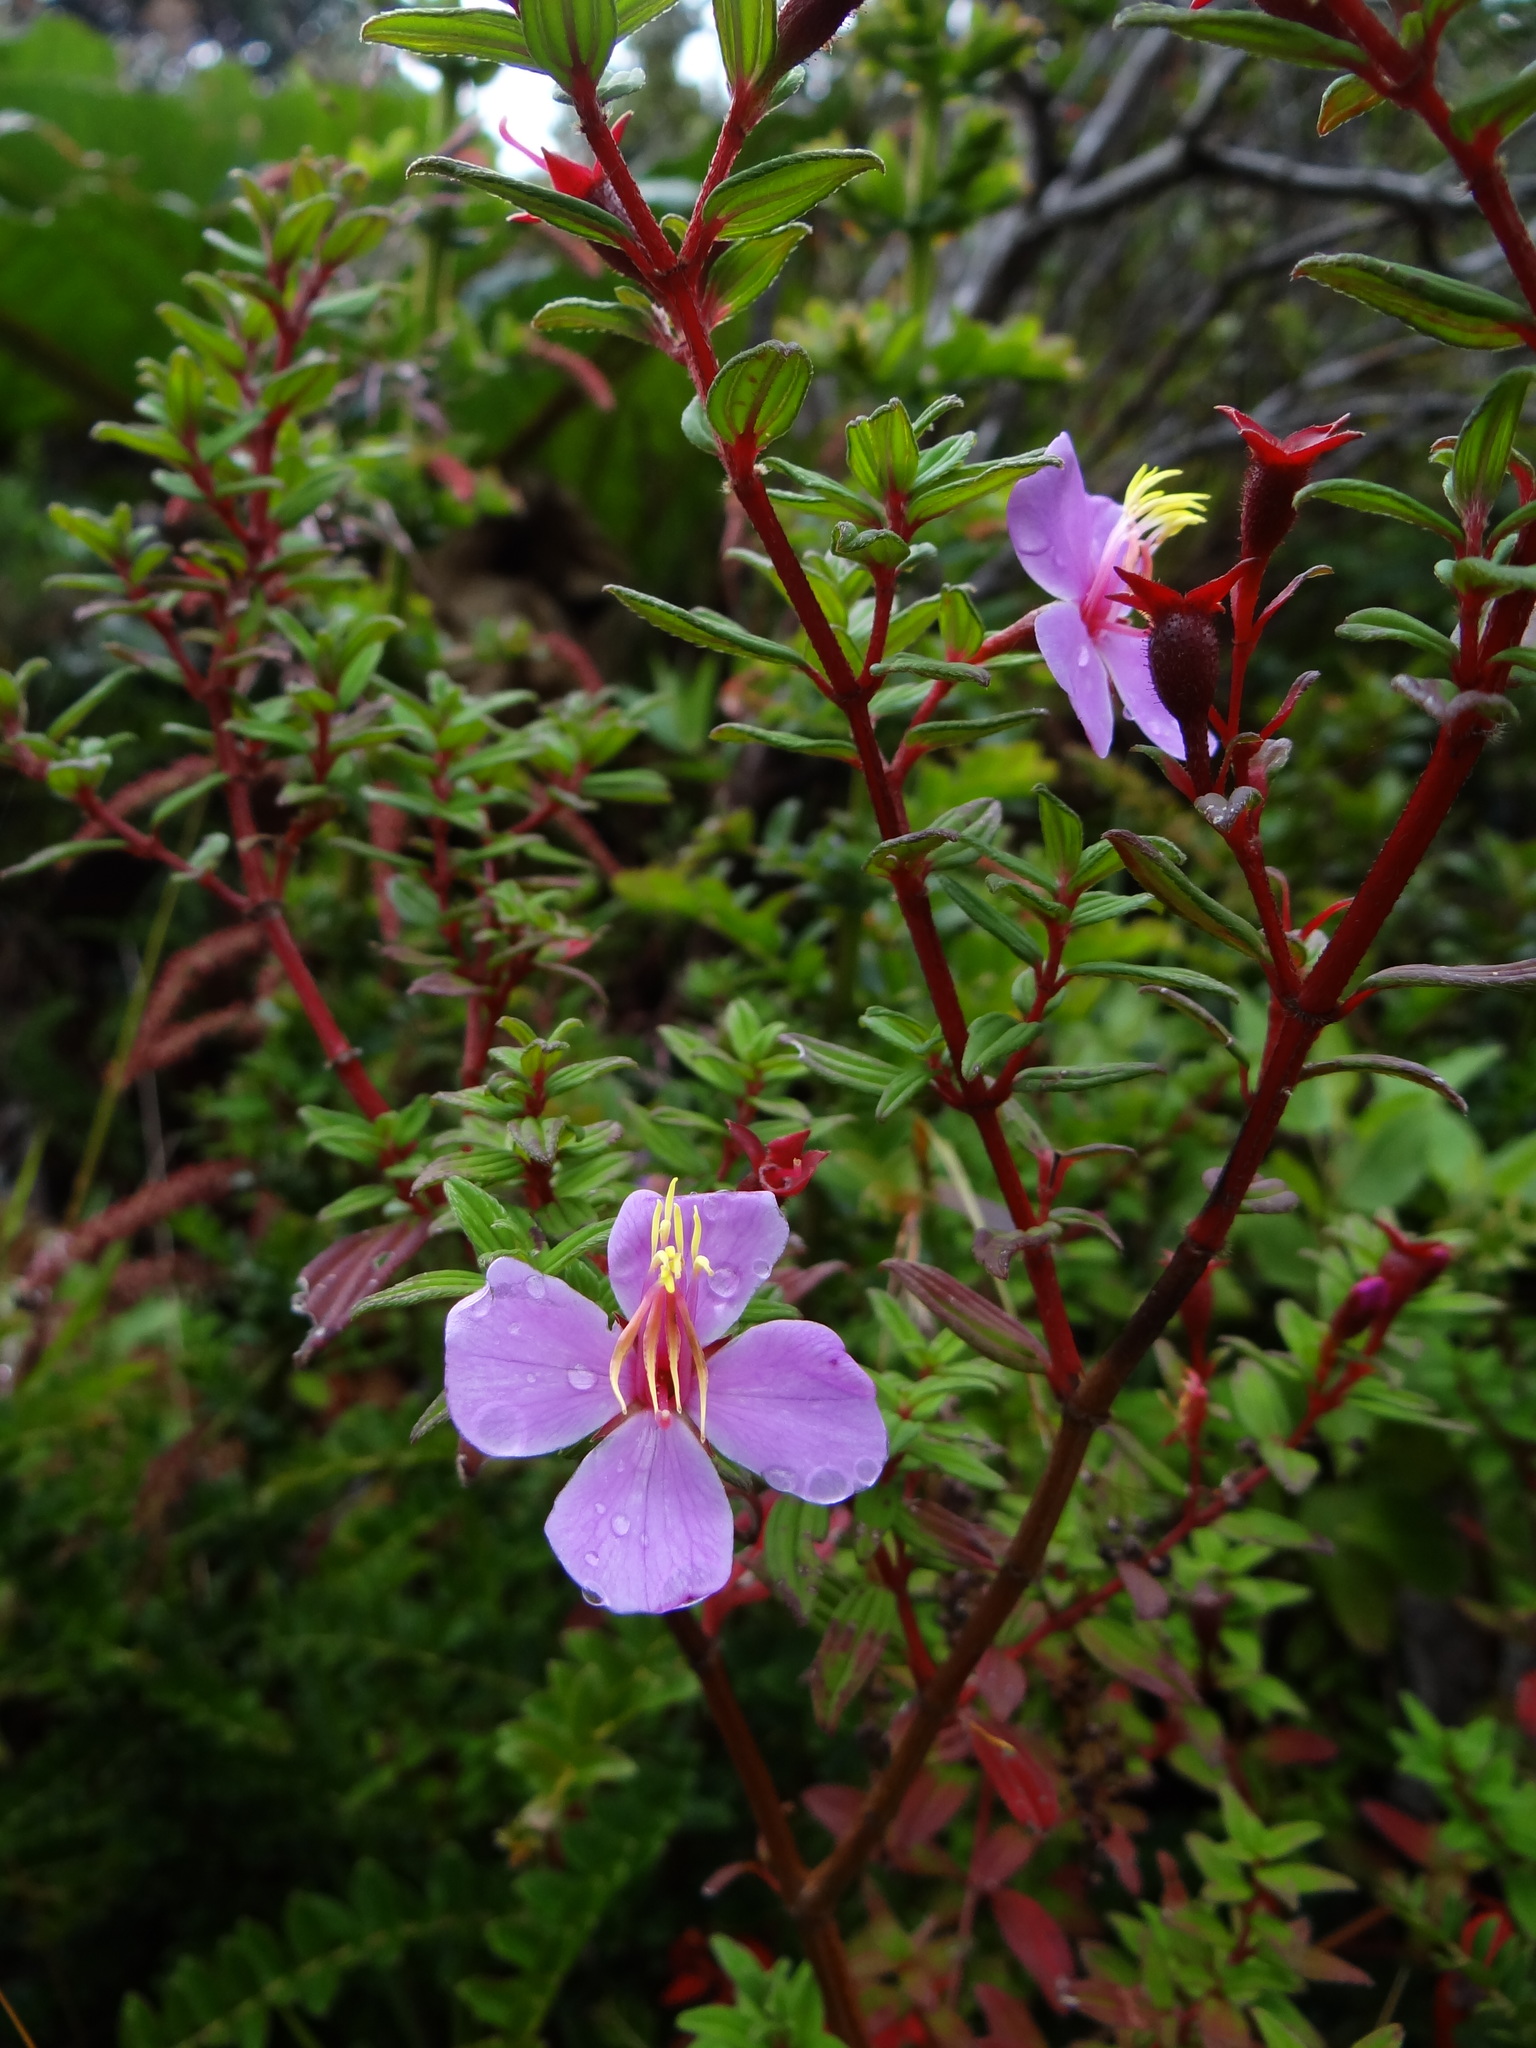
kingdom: Plantae
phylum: Tracheophyta
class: Magnoliopsida
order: Myrtales
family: Melastomataceae
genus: Monochaetum
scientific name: Monochaetum vulcanicum
